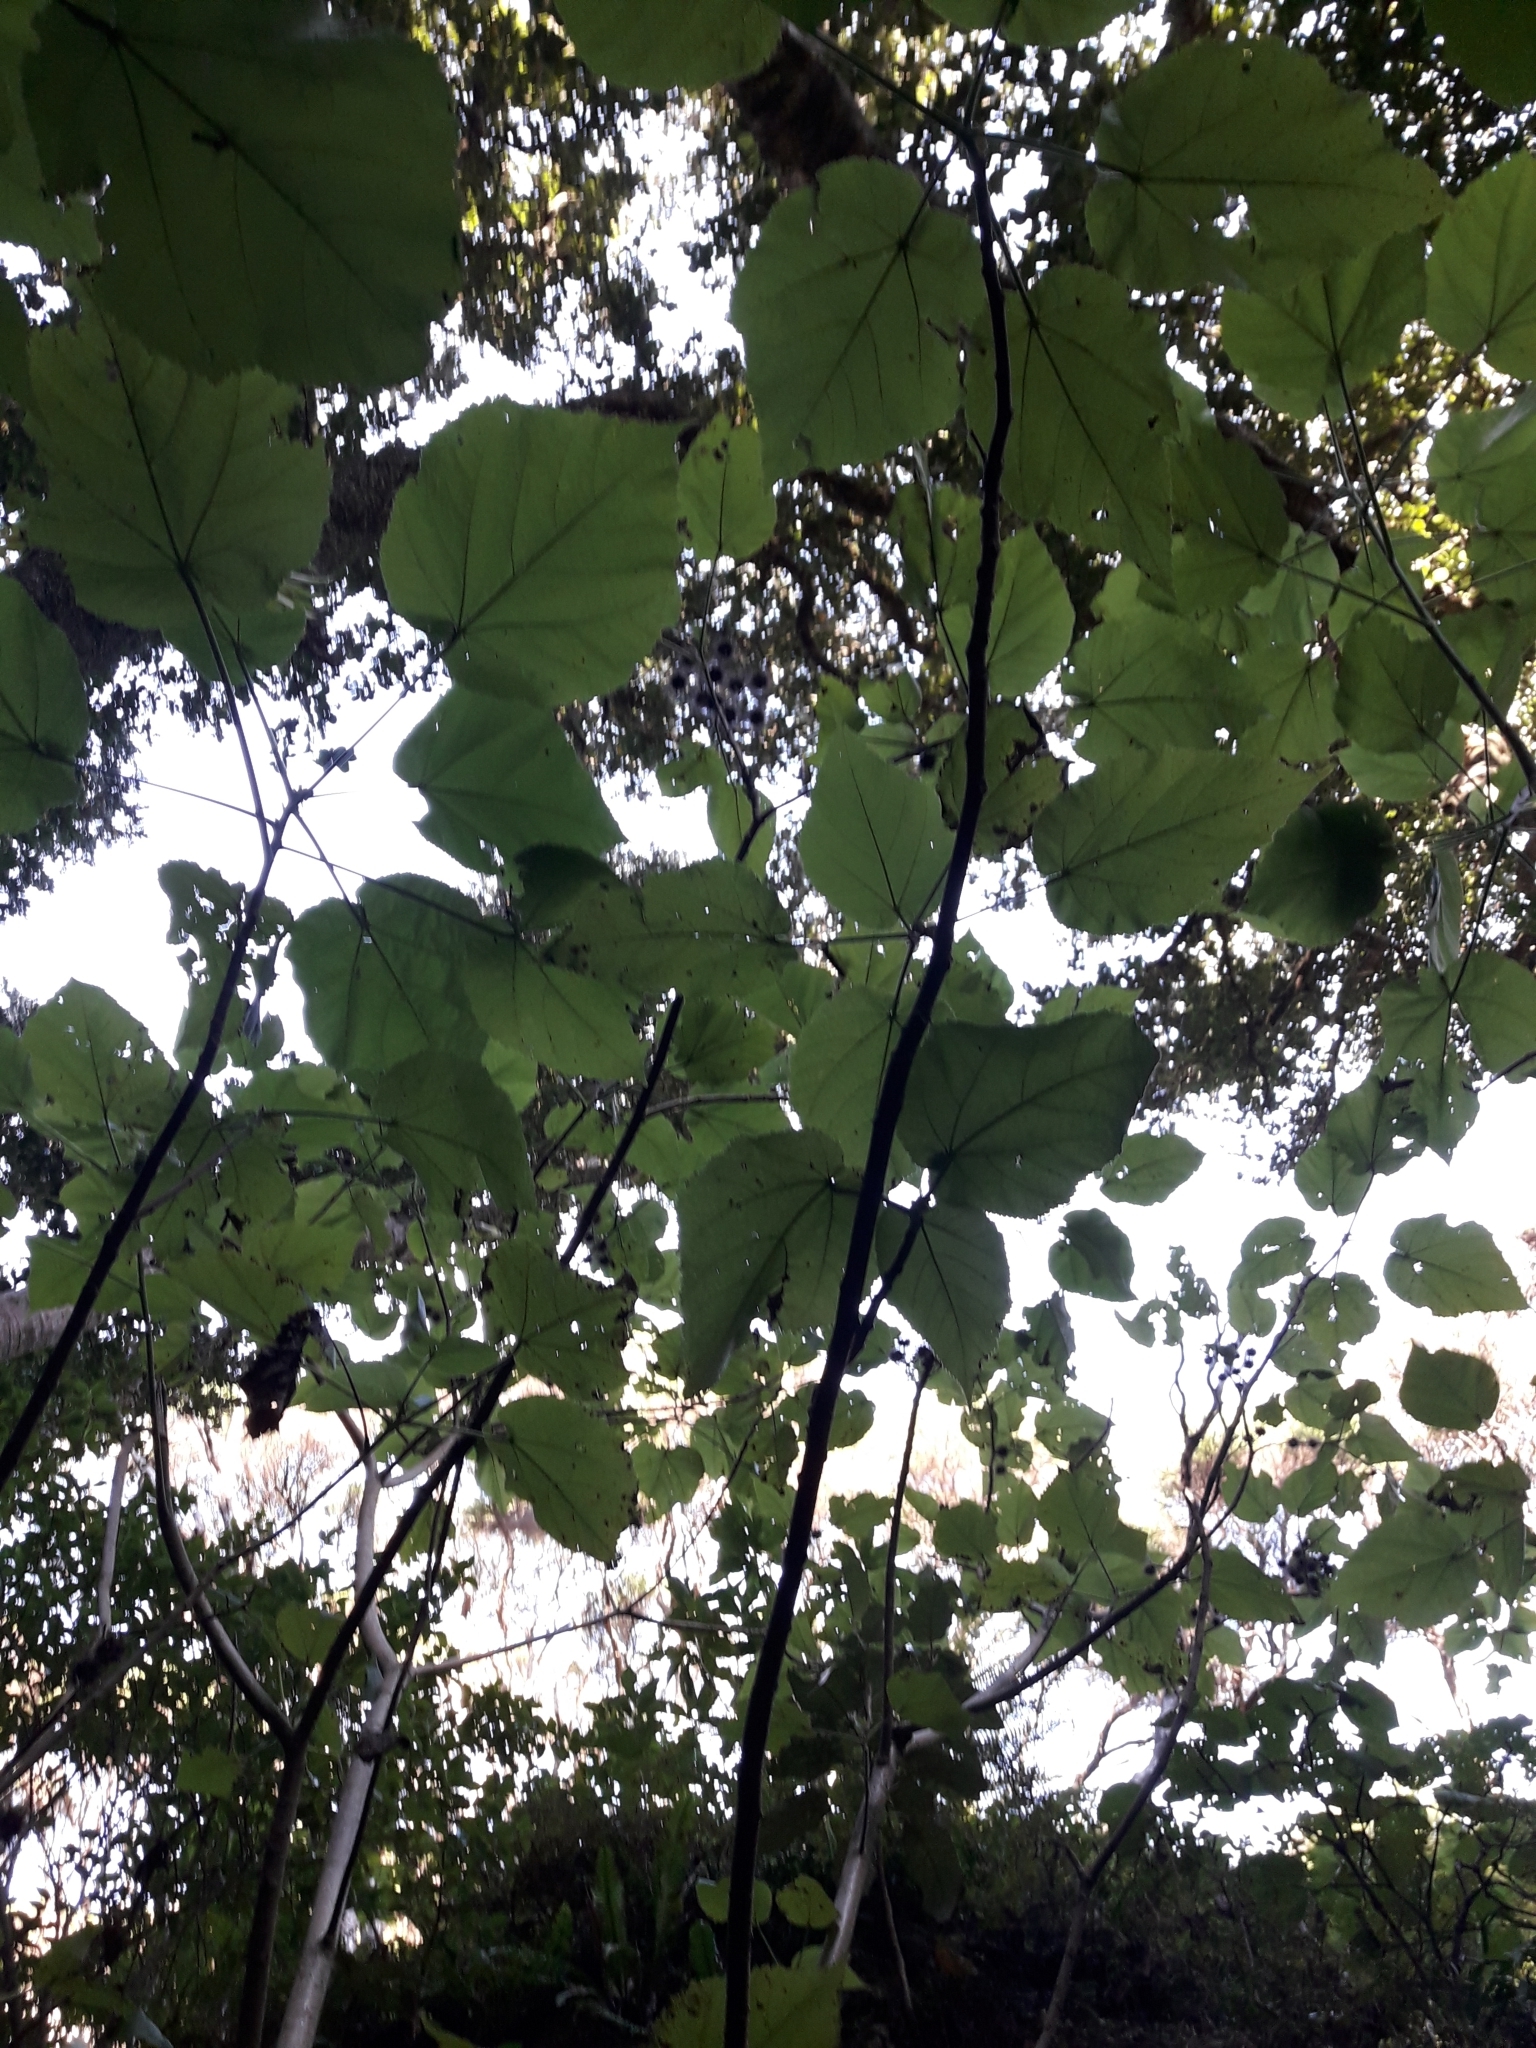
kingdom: Plantae
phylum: Tracheophyta
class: Magnoliopsida
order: Malvales
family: Malvaceae
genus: Entelea
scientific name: Entelea arborescens
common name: New zealand-mulberry
